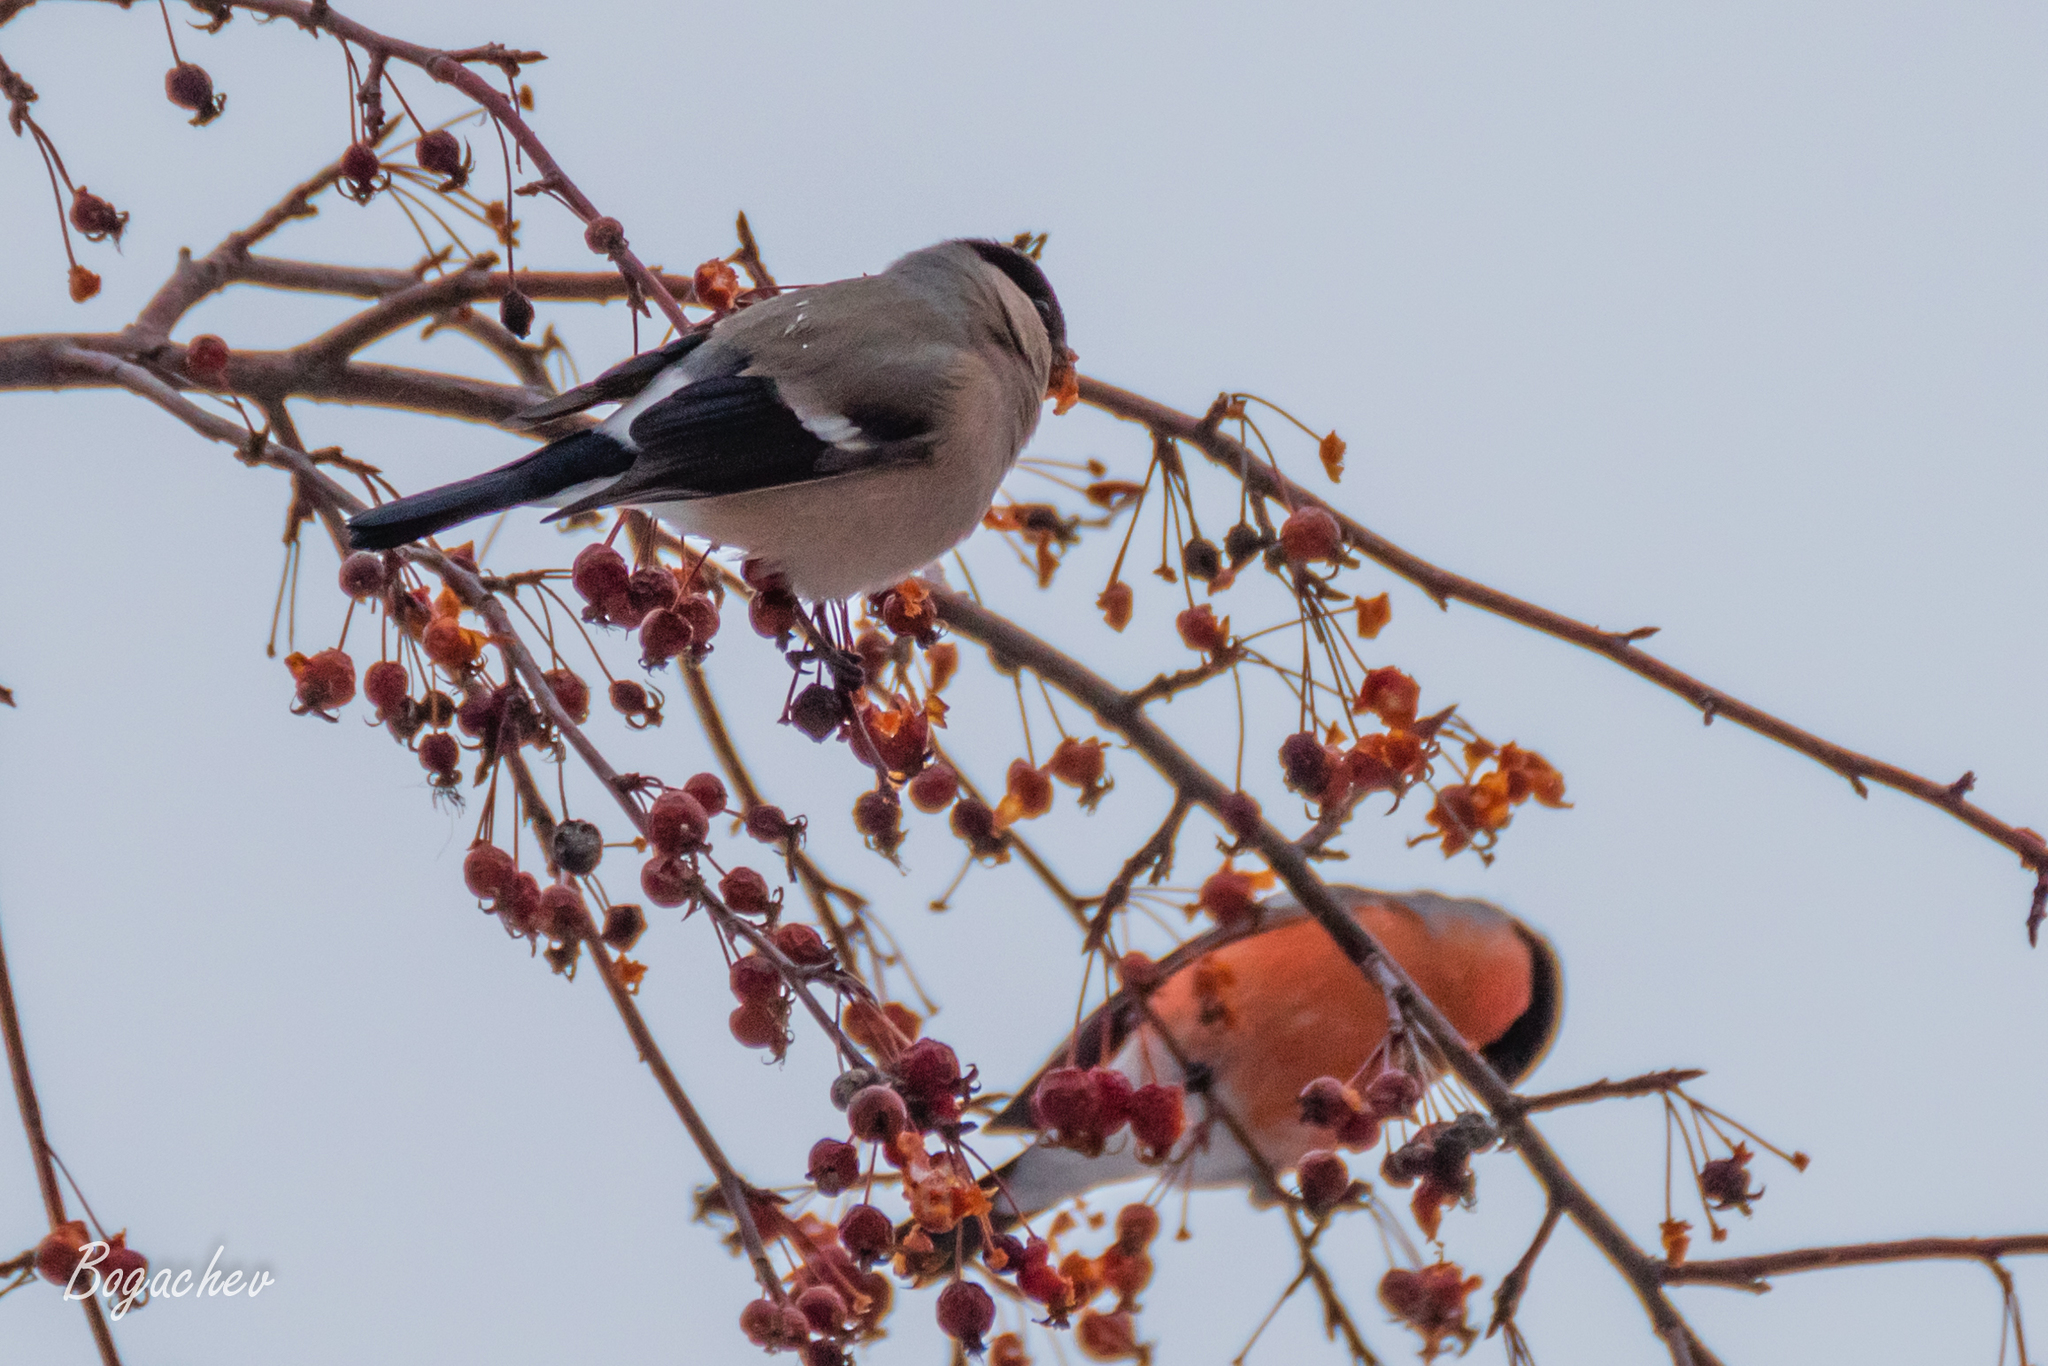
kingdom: Animalia
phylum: Chordata
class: Aves
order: Passeriformes
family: Fringillidae
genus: Pyrrhula
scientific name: Pyrrhula pyrrhula
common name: Eurasian bullfinch
